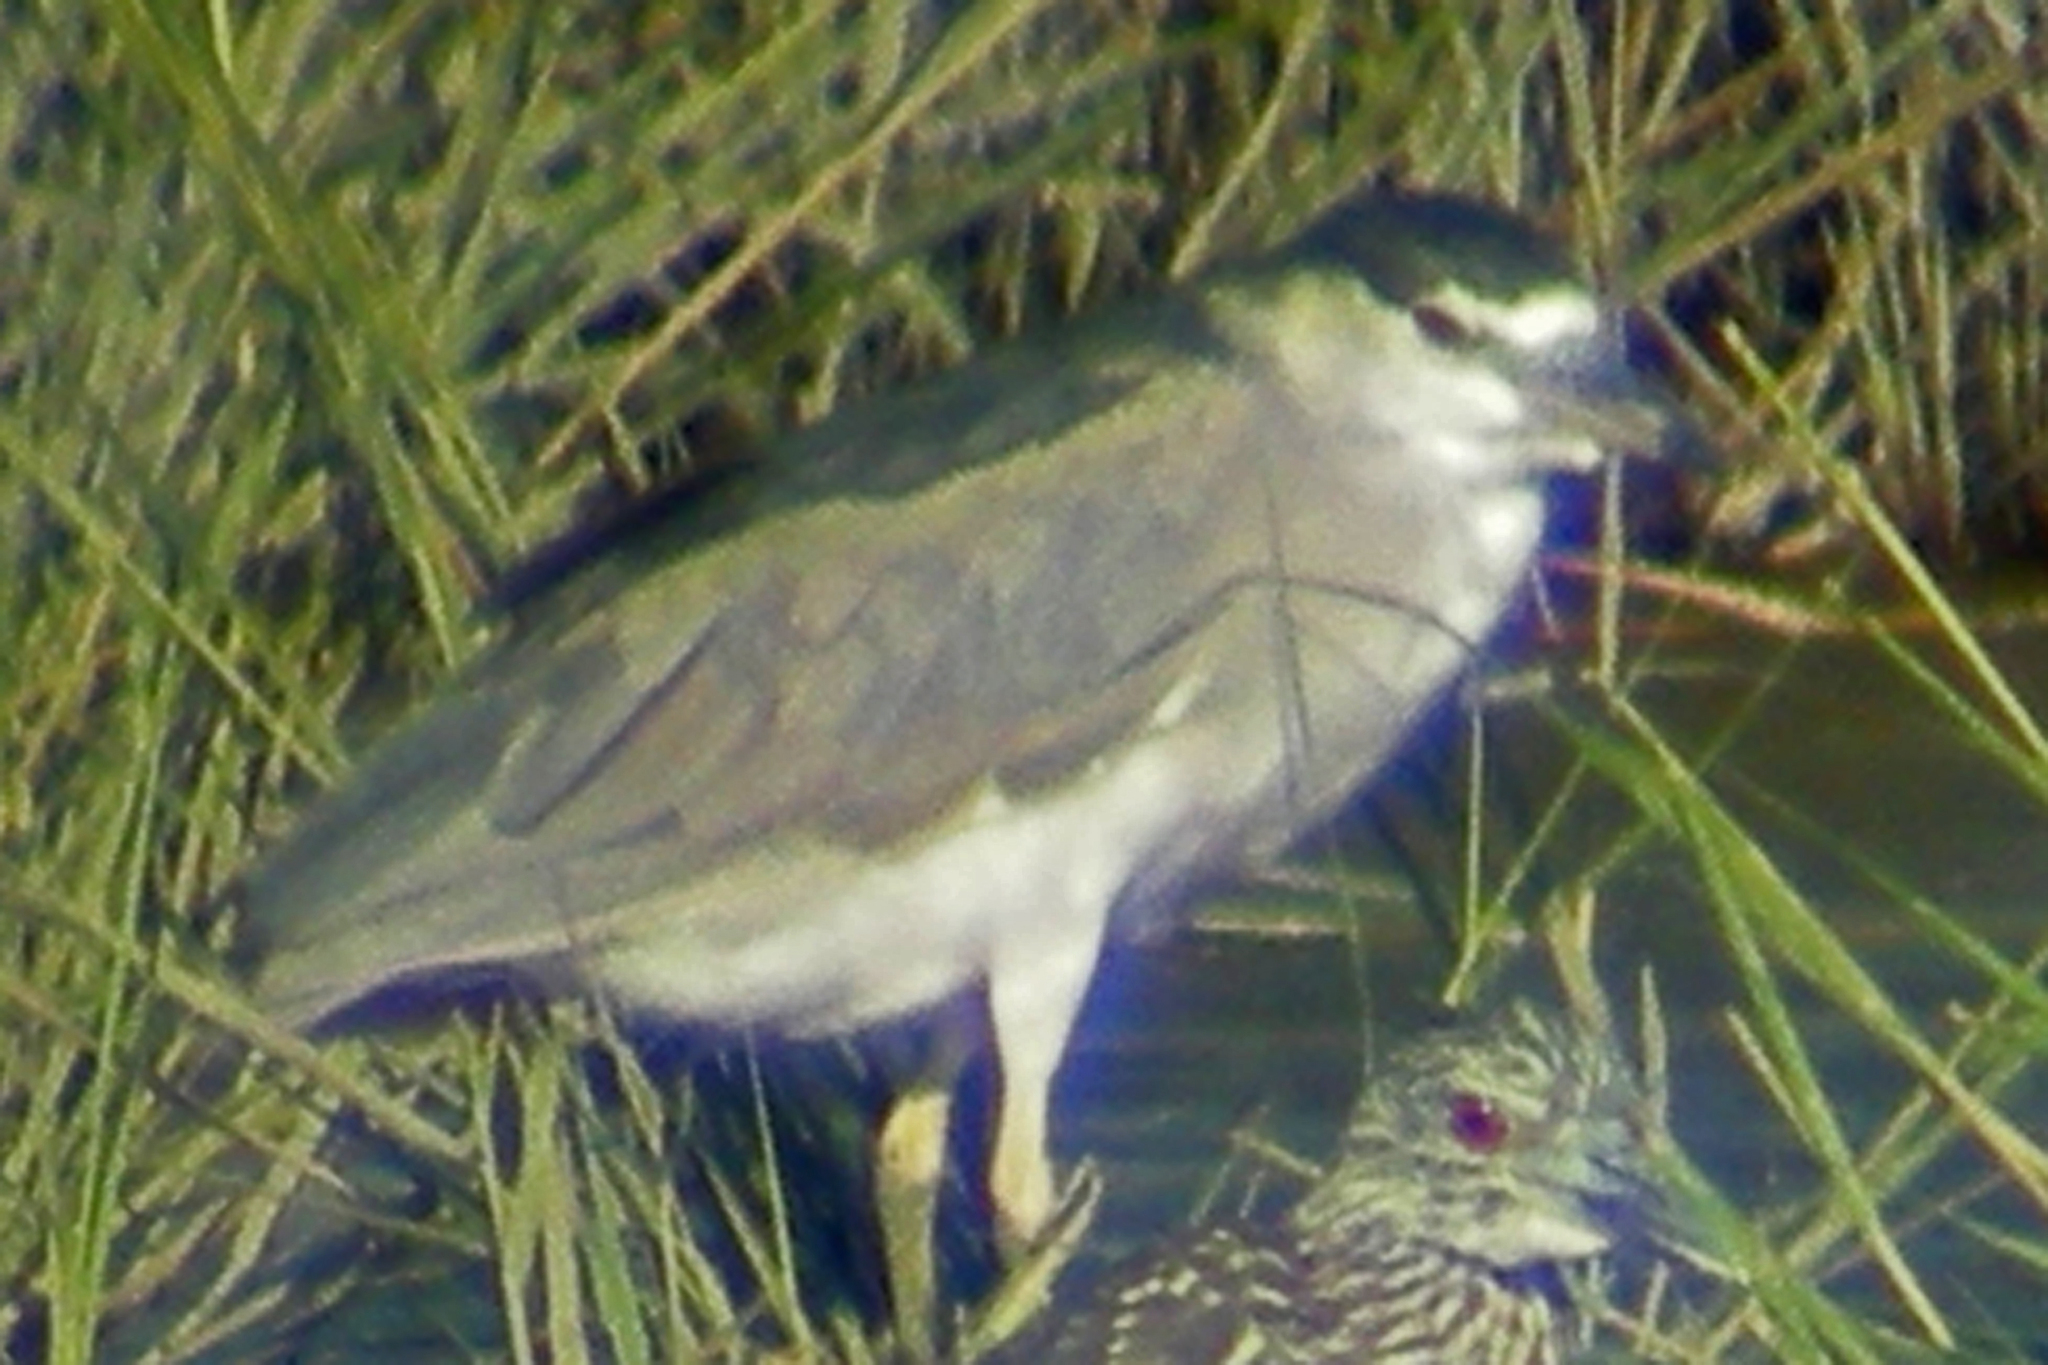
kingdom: Animalia
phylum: Chordata
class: Aves
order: Pelecaniformes
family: Ardeidae
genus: Nycticorax
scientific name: Nycticorax nycticorax
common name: Black-crowned night heron
